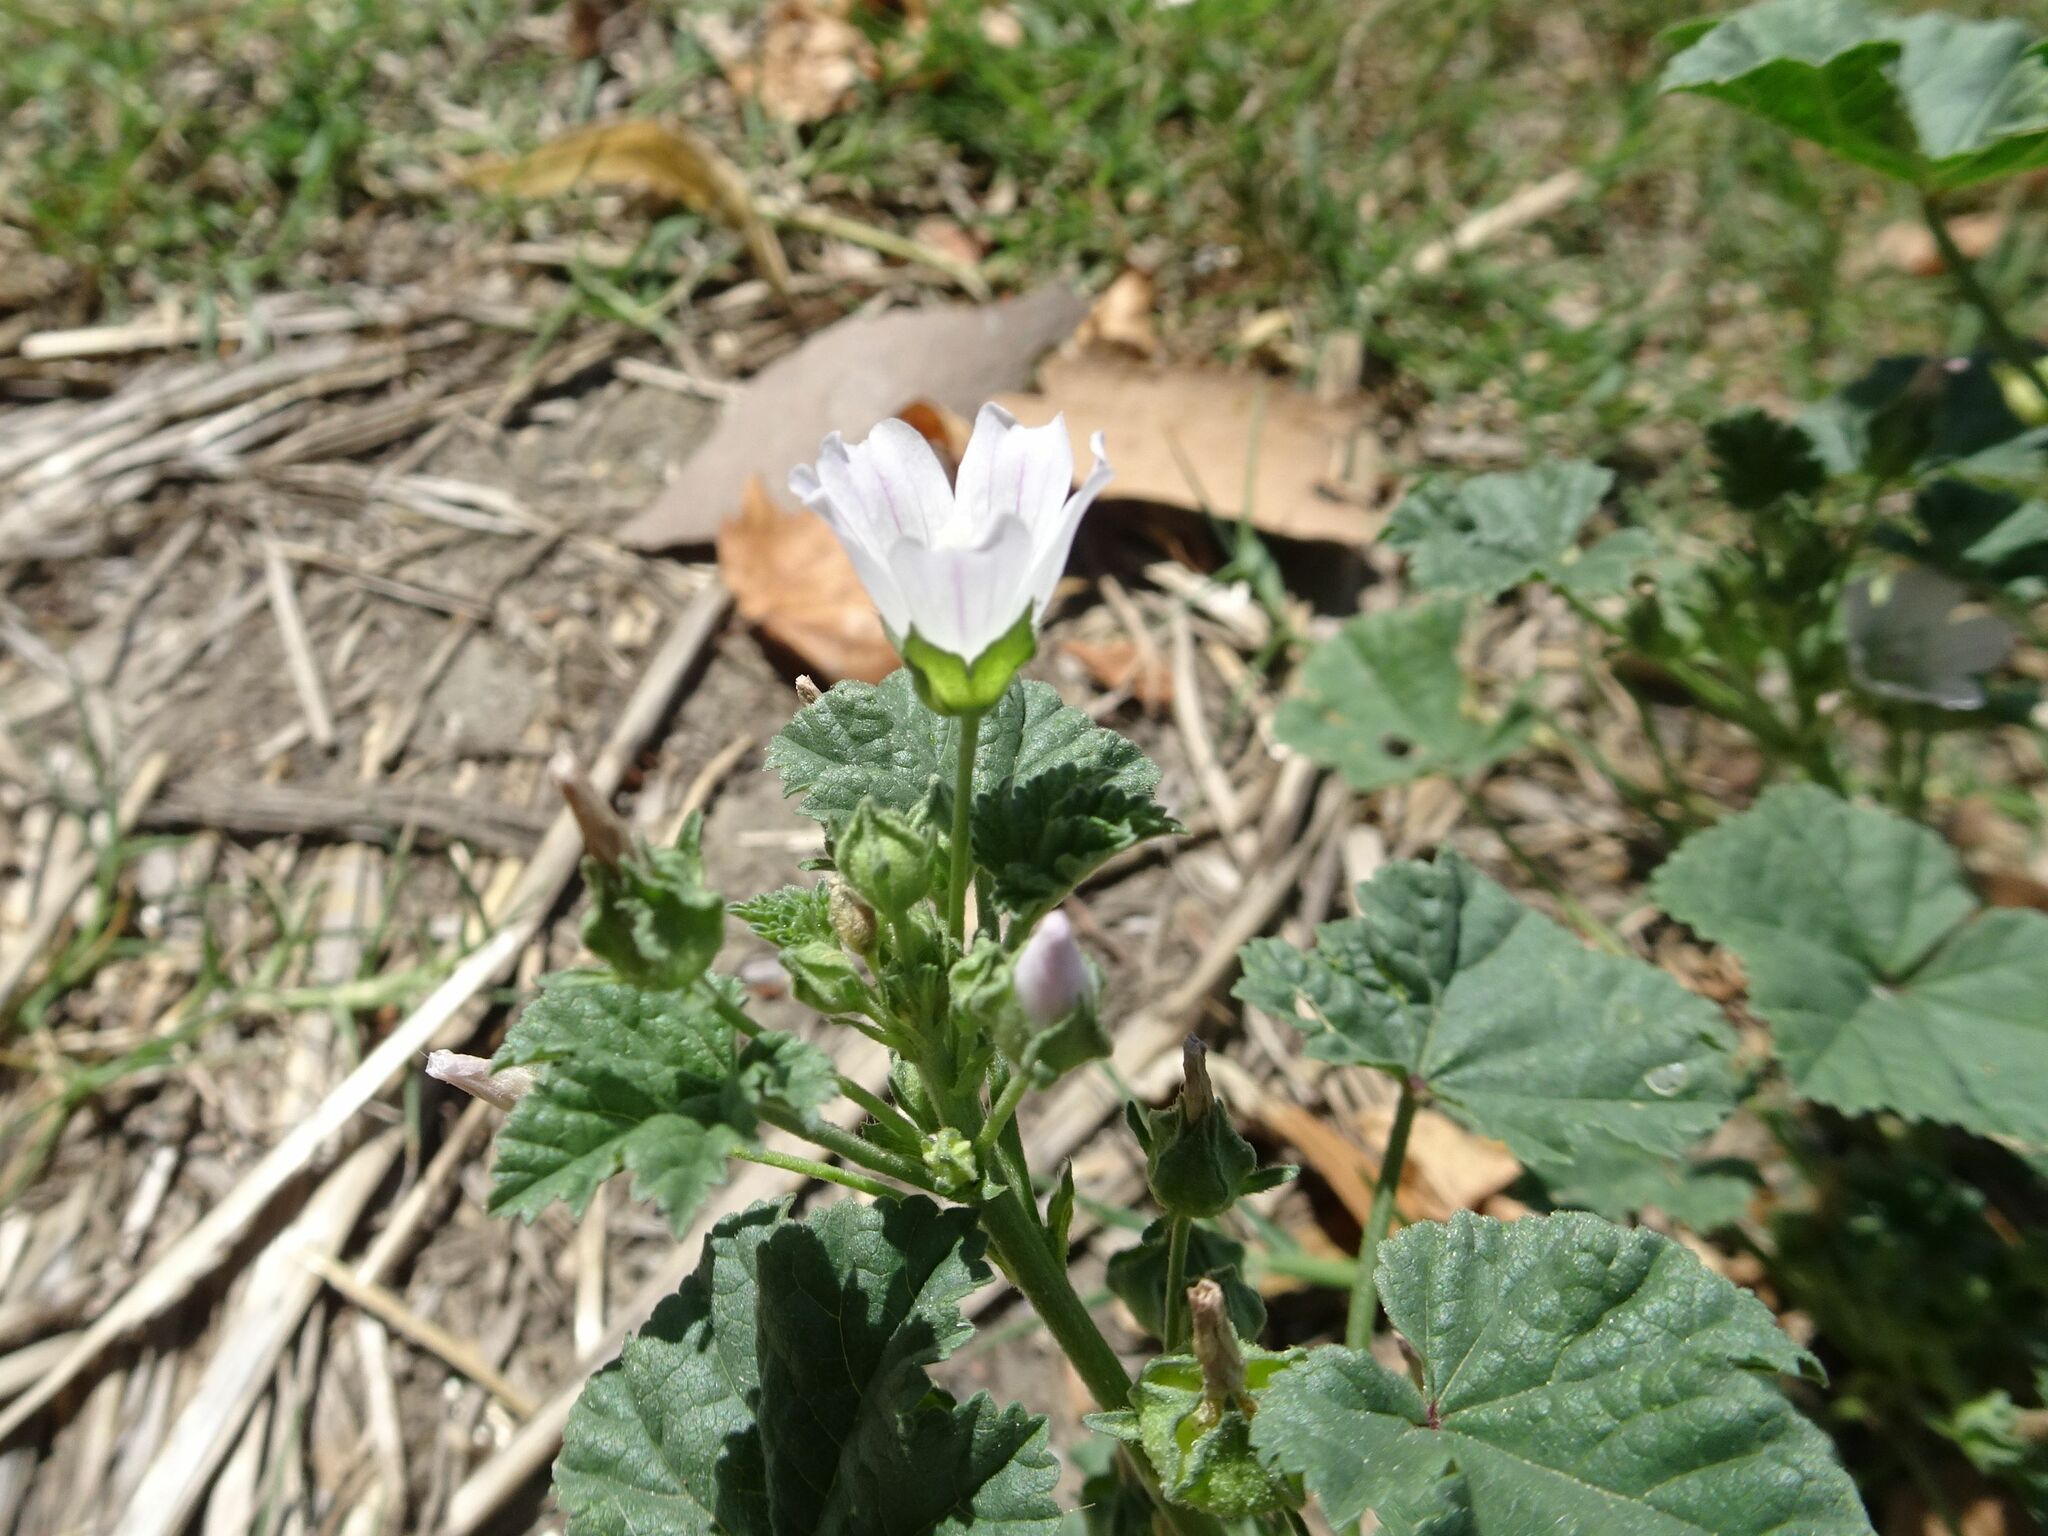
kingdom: Plantae
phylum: Tracheophyta
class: Magnoliopsida
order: Malvales
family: Malvaceae
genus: Malva
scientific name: Malva neglecta
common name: Common mallow
